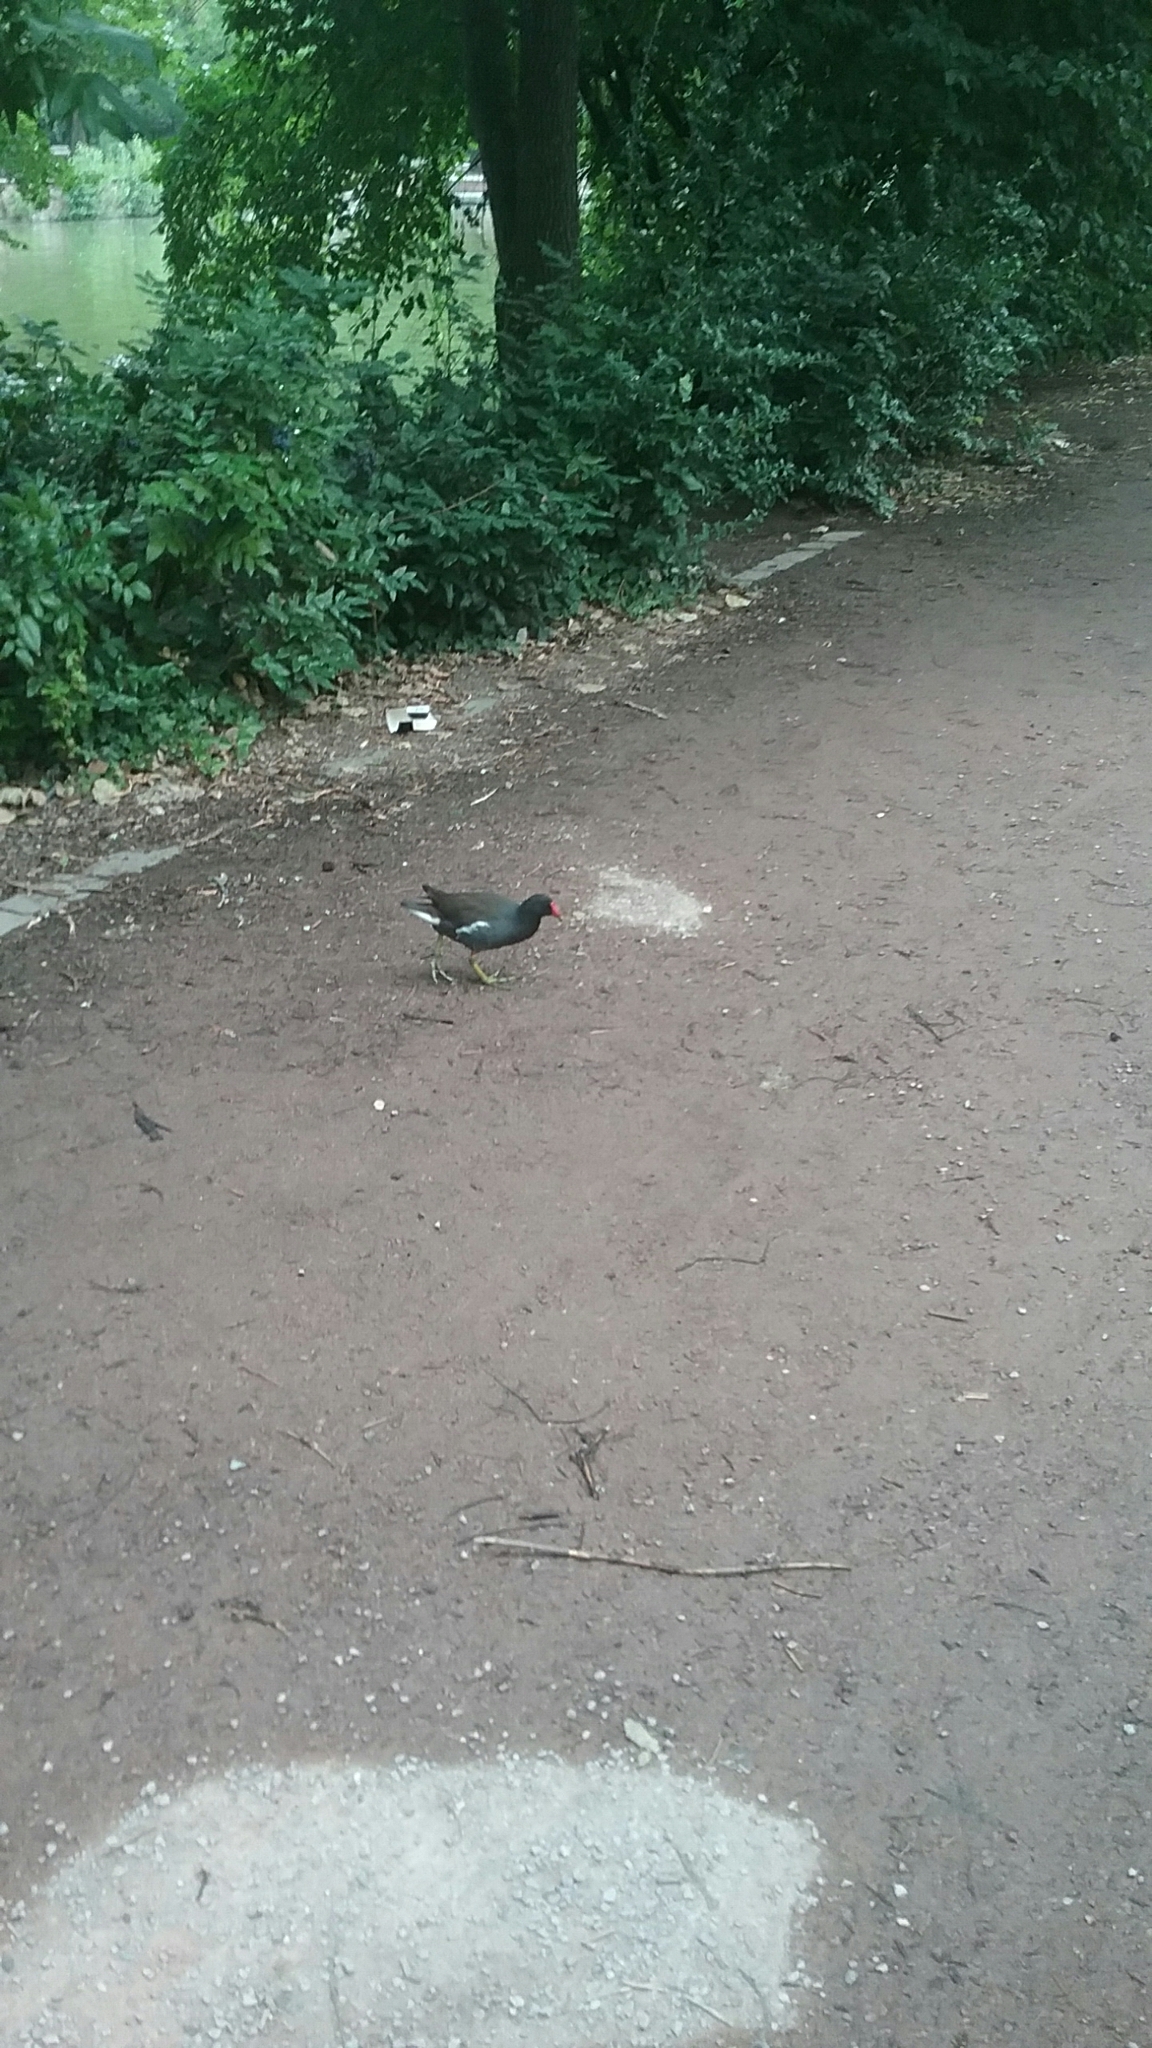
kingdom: Animalia
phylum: Chordata
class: Aves
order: Gruiformes
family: Rallidae
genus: Gallinula
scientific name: Gallinula chloropus
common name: Common moorhen
